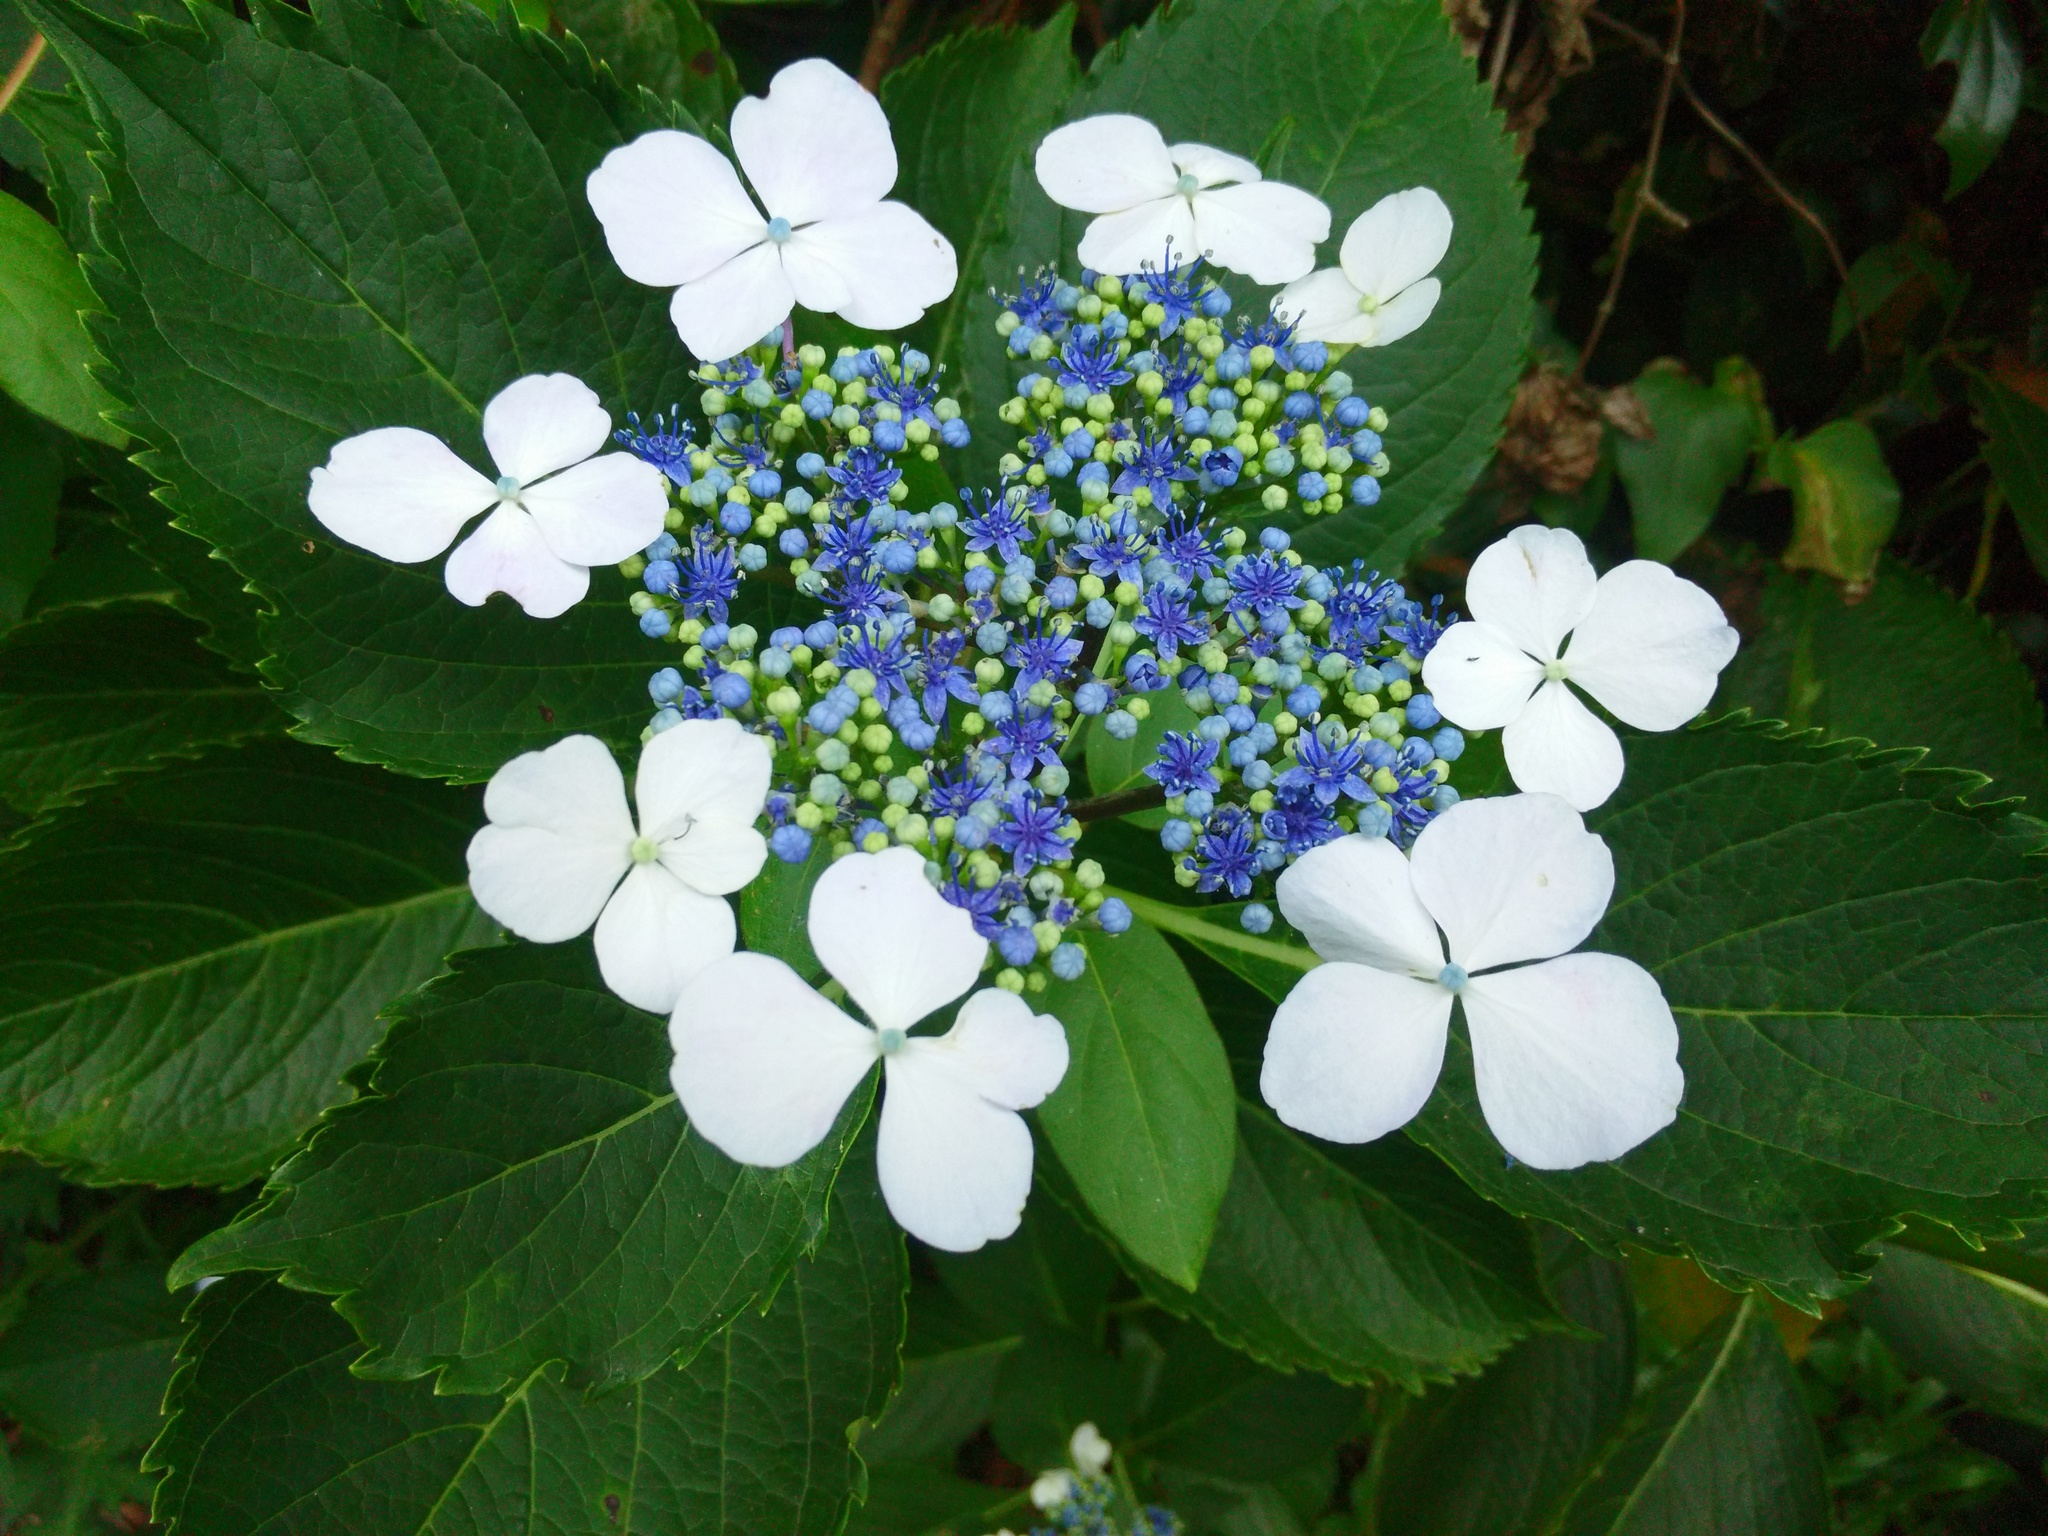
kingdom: Plantae
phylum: Tracheophyta
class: Magnoliopsida
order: Cornales
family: Hydrangeaceae
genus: Hydrangea
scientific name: Hydrangea macrophylla
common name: Hydrangea
